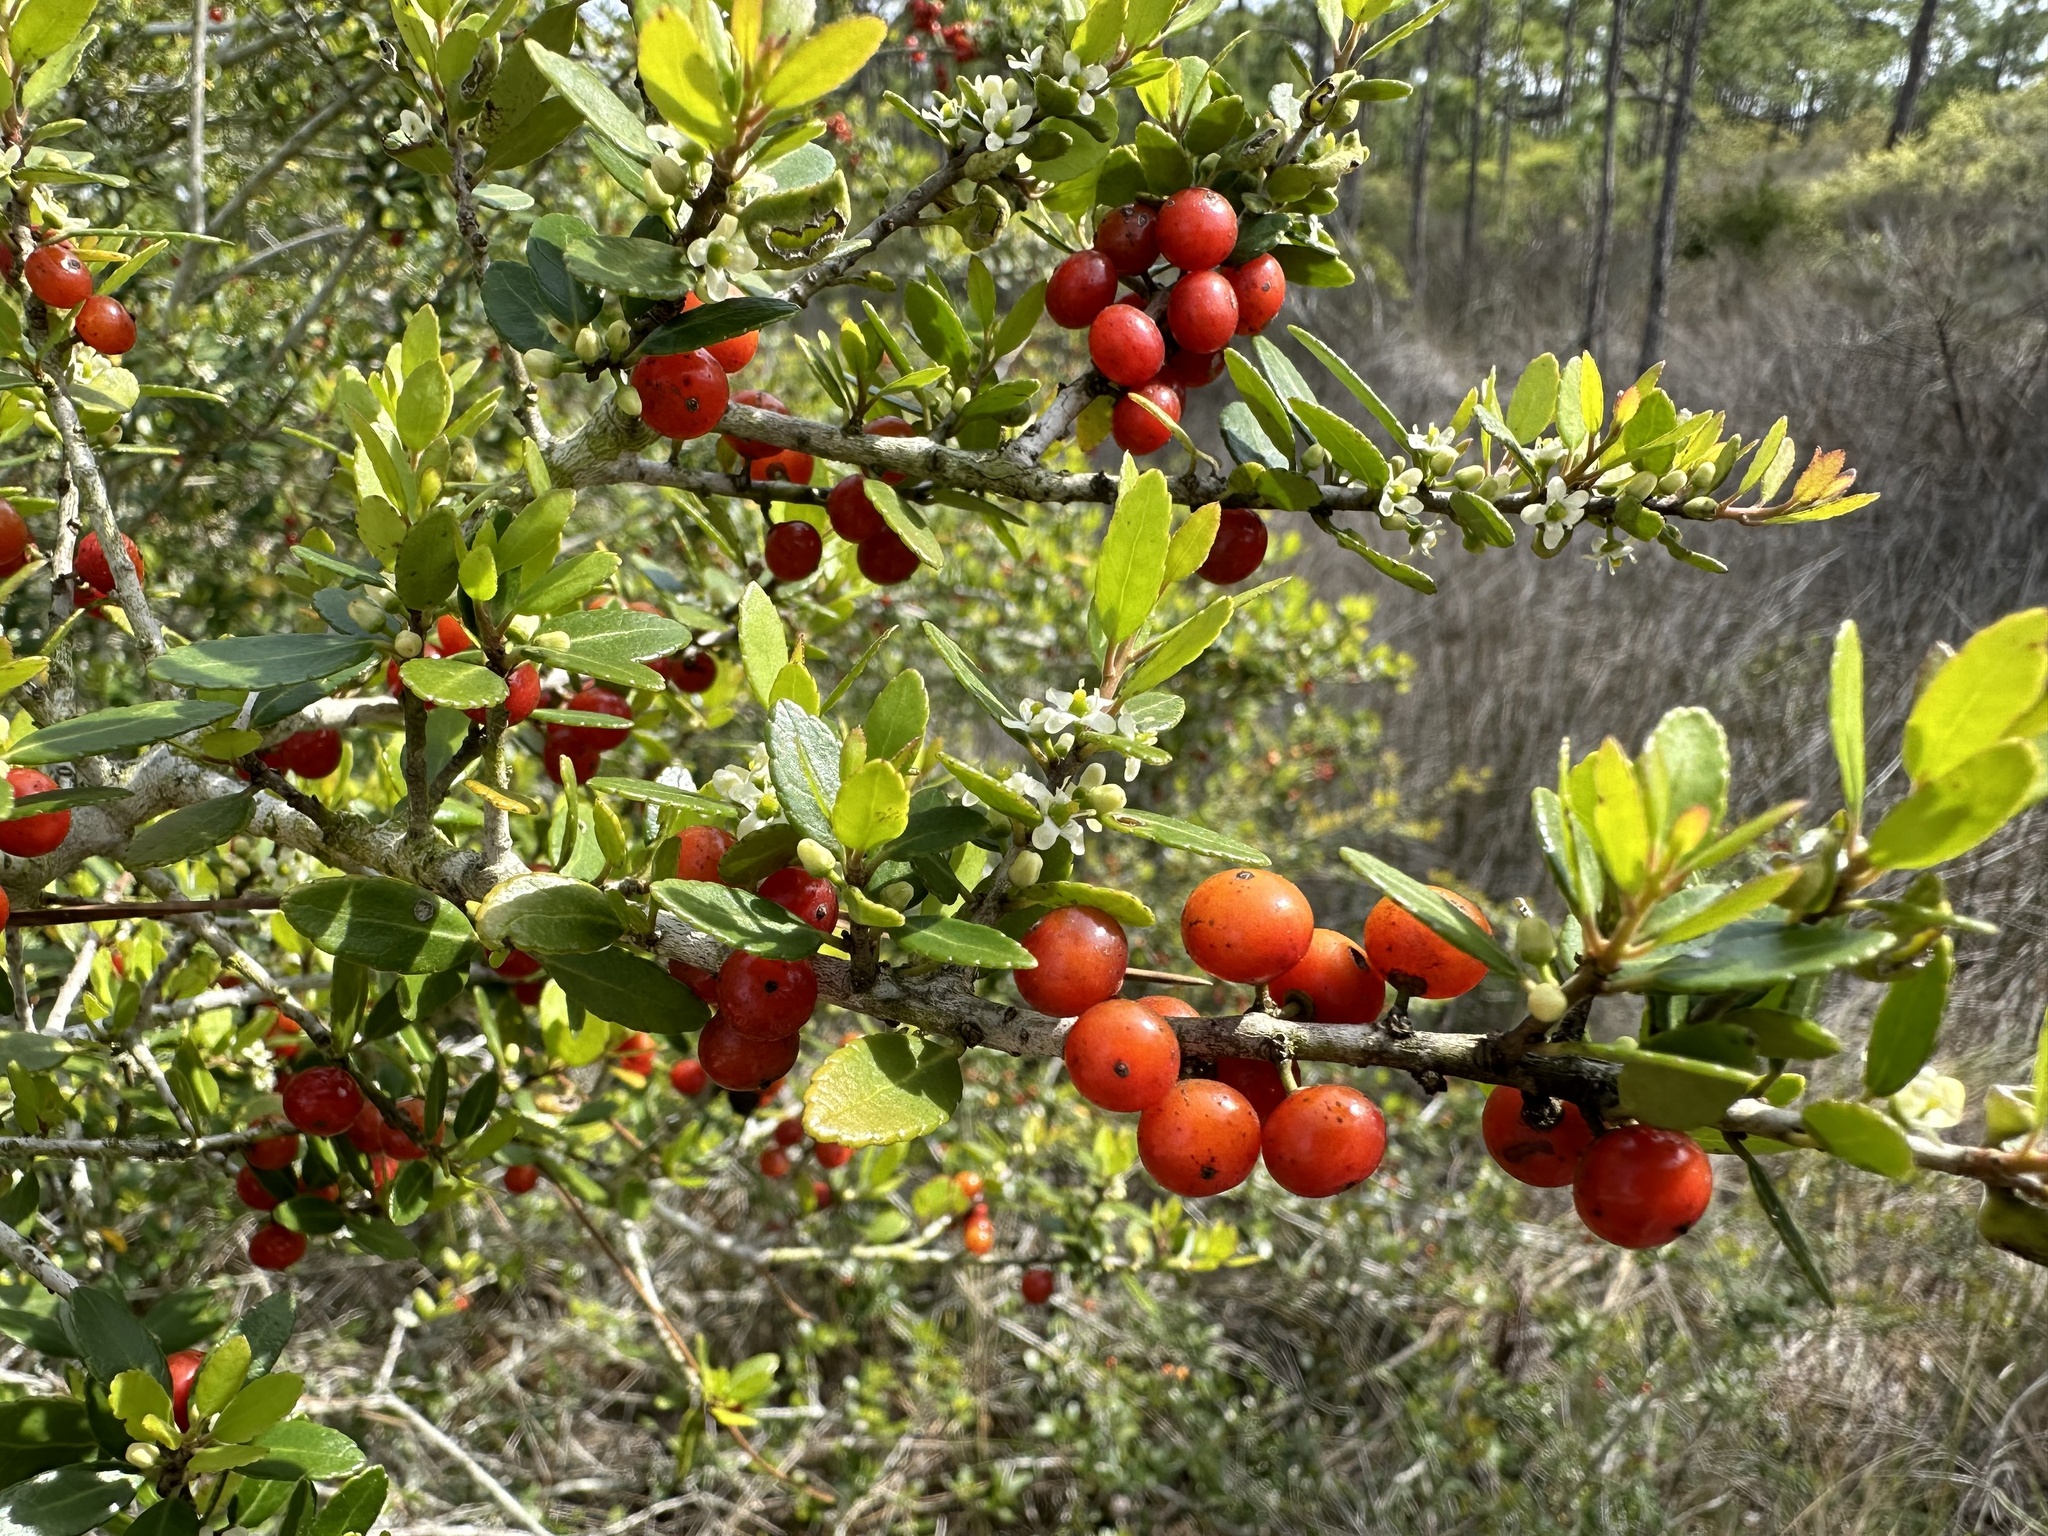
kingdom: Plantae
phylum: Tracheophyta
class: Magnoliopsida
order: Aquifoliales
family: Aquifoliaceae
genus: Ilex
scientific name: Ilex vomitoria
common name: Yaupon holly
